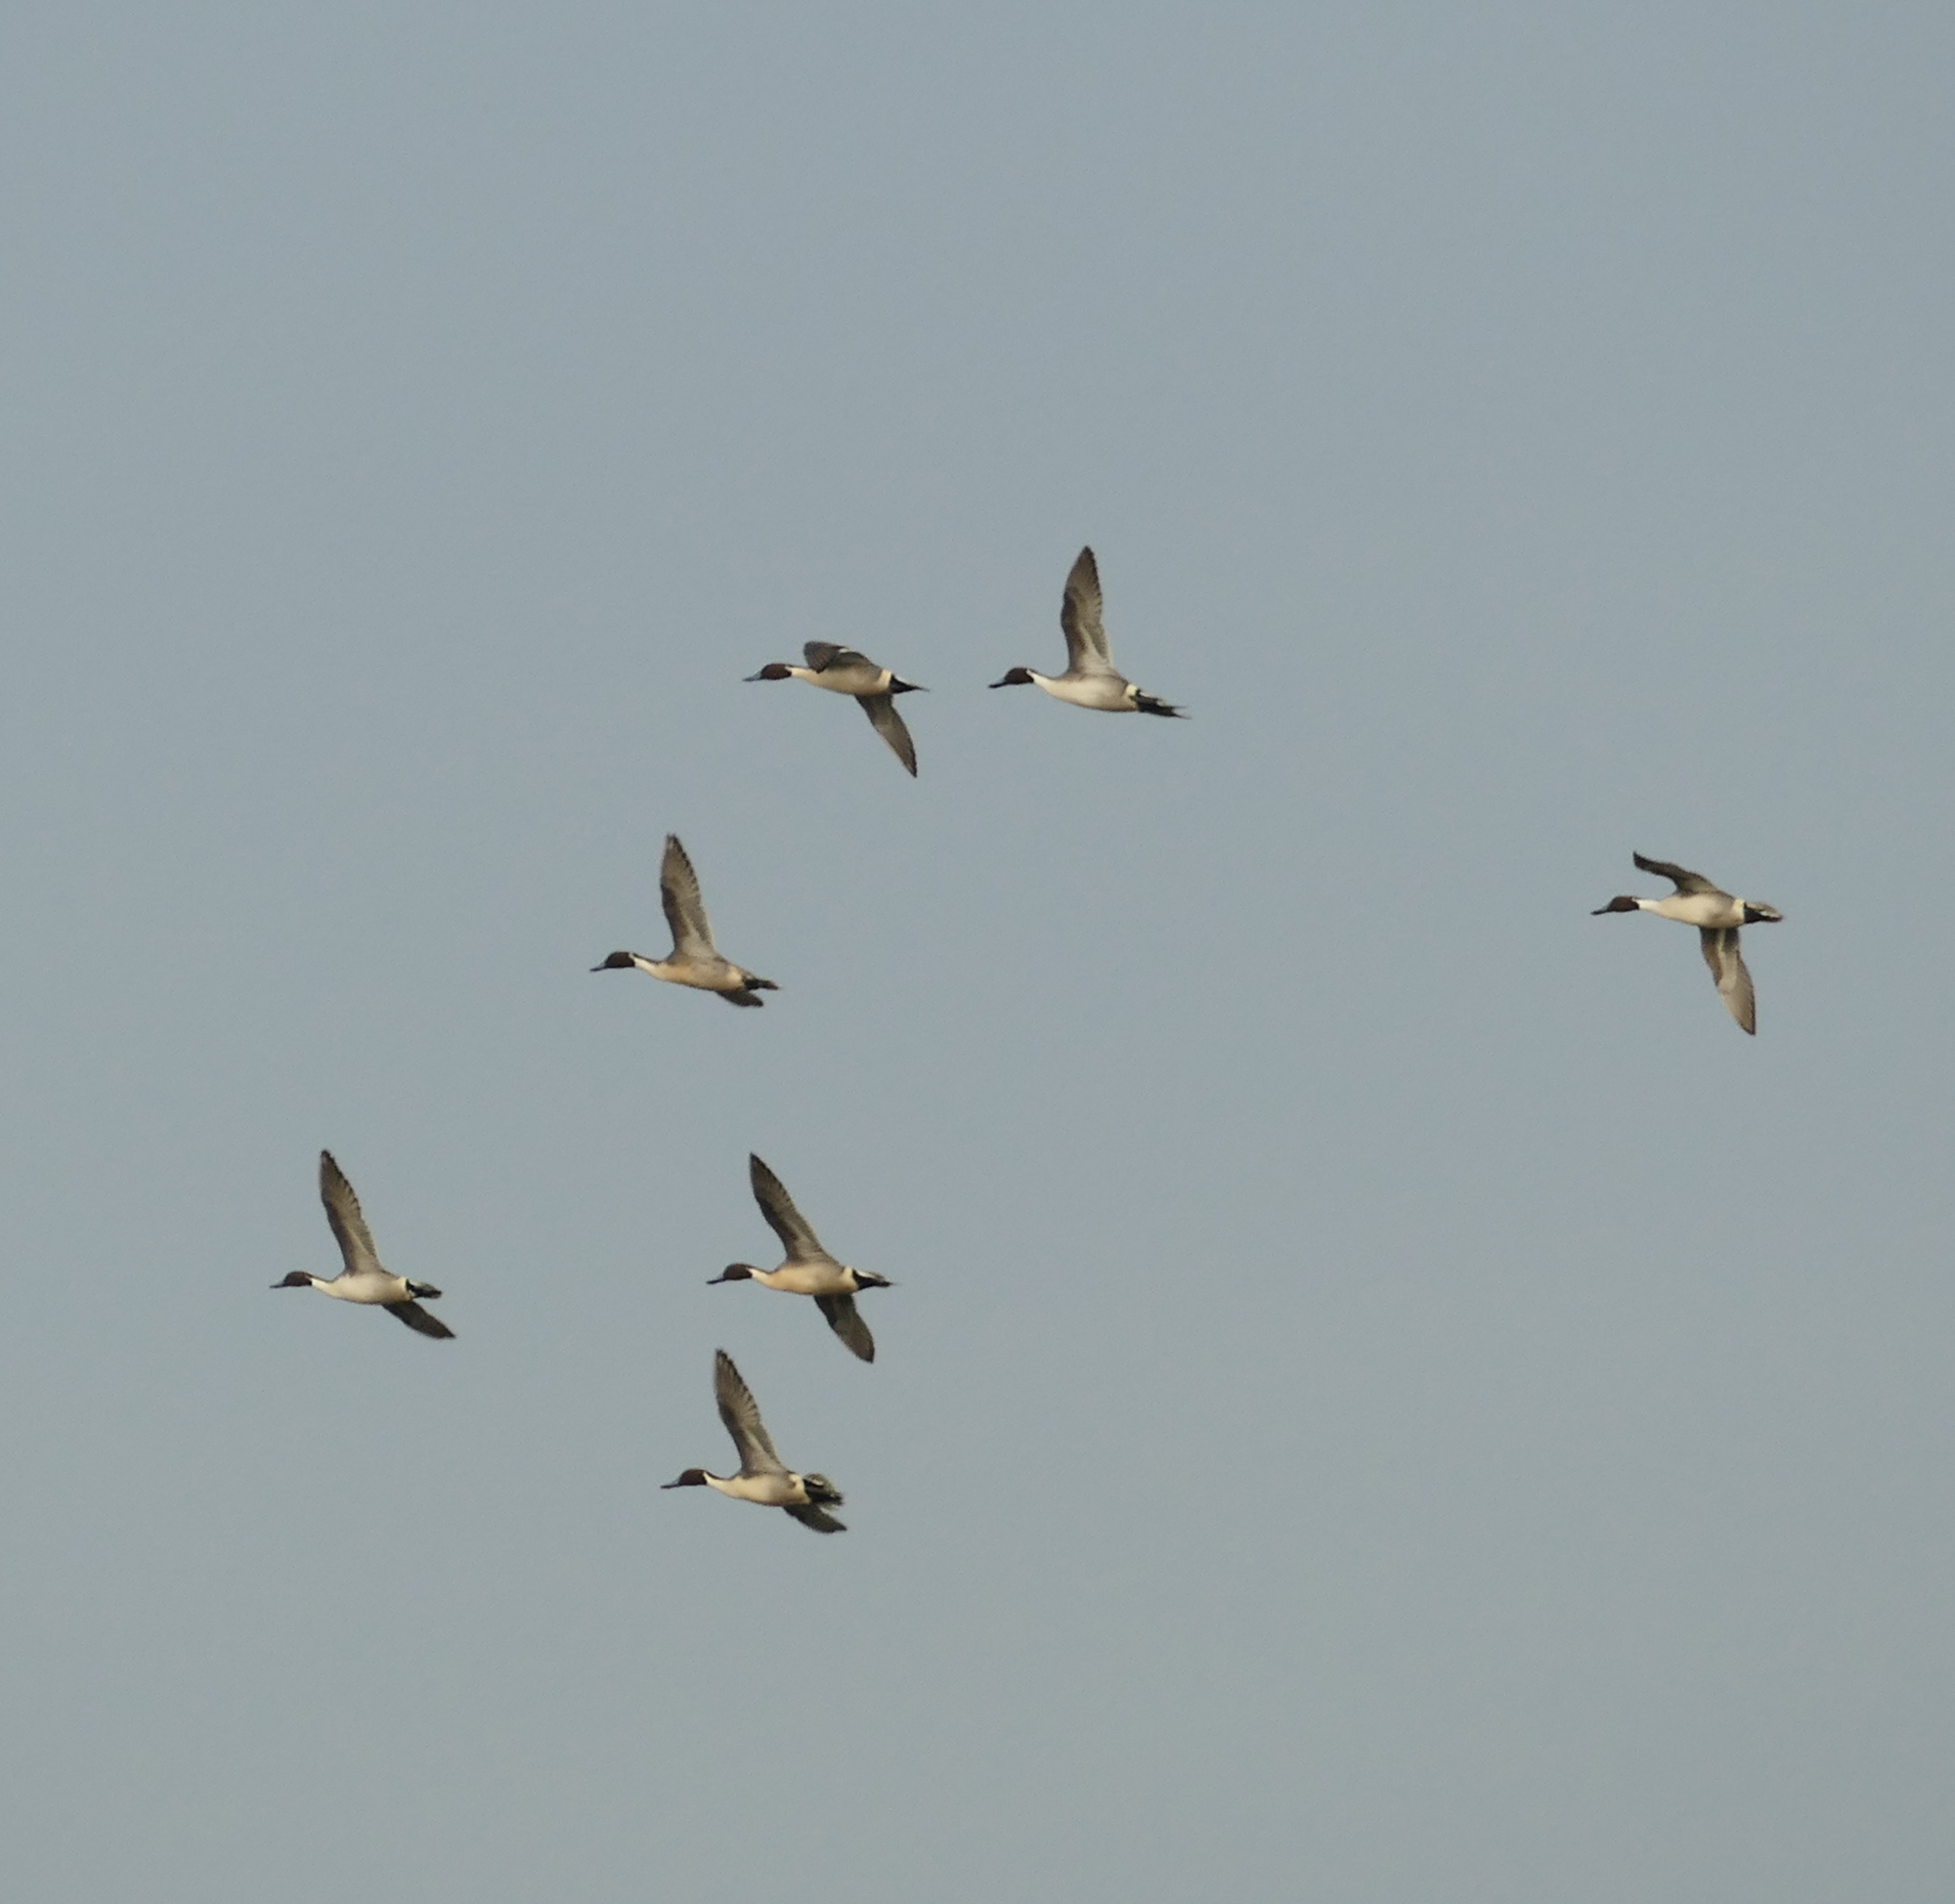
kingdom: Animalia
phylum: Chordata
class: Aves
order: Anseriformes
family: Anatidae
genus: Anas
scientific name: Anas acuta
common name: Northern pintail
